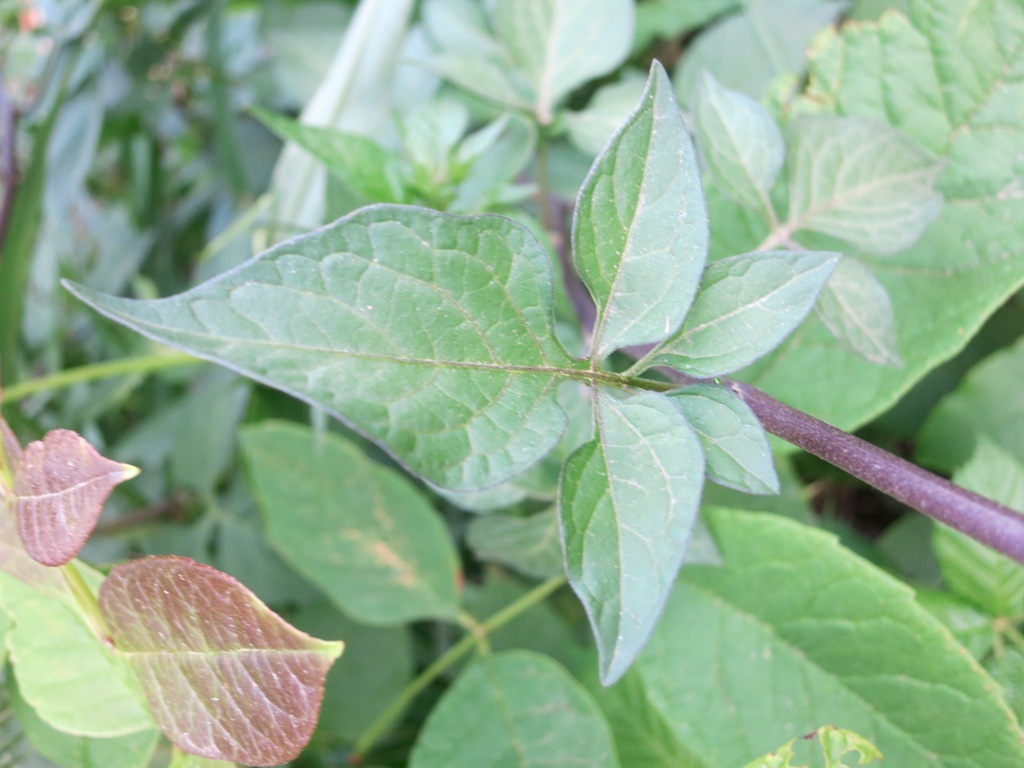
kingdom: Plantae
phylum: Tracheophyta
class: Magnoliopsida
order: Solanales
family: Solanaceae
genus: Solanum
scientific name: Solanum dulcamara
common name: Climbing nightshade
